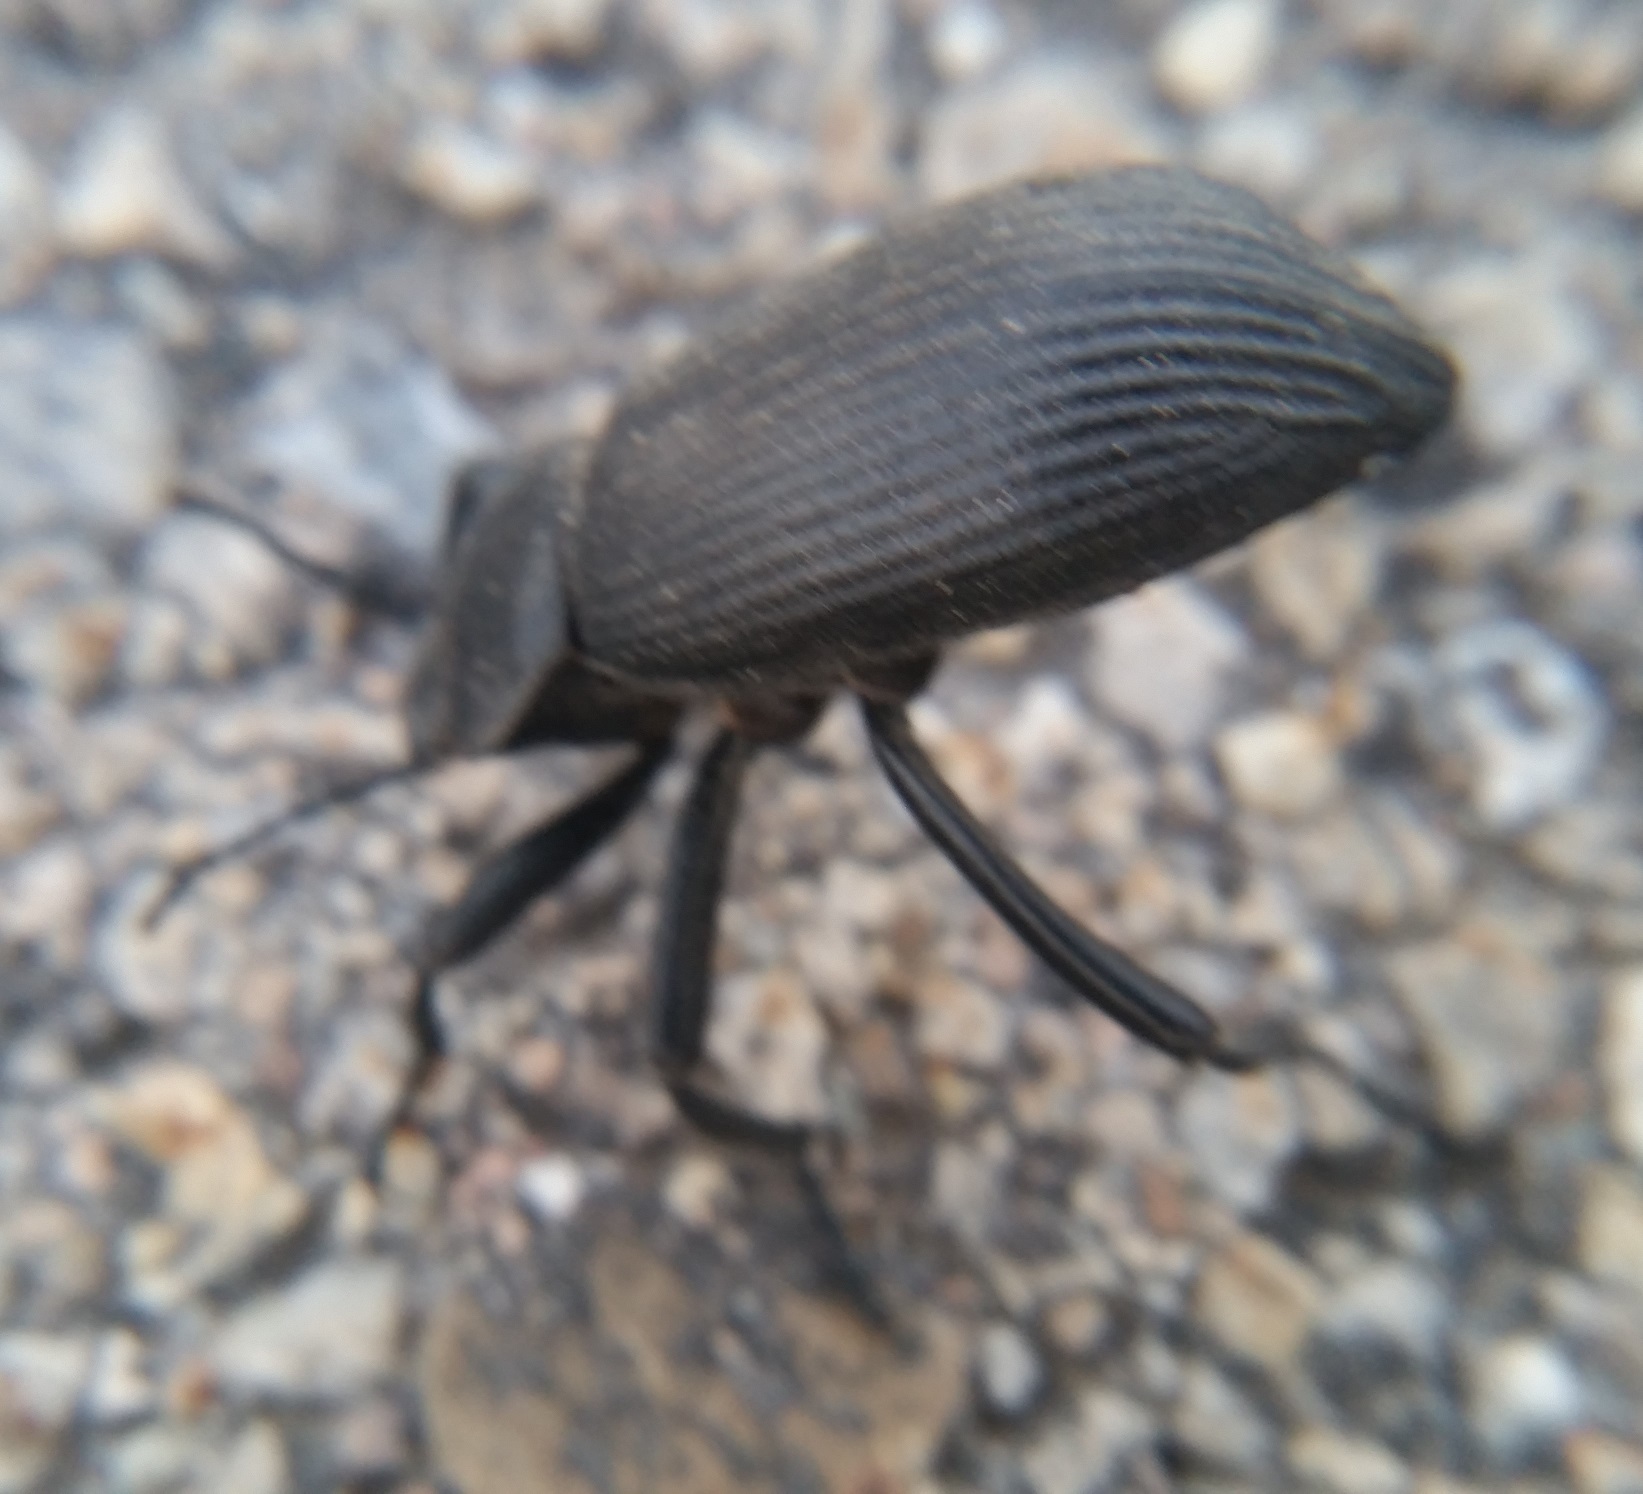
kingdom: Animalia
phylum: Arthropoda
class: Insecta
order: Coleoptera
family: Tenebrionidae
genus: Eleodes
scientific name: Eleodes obscura
